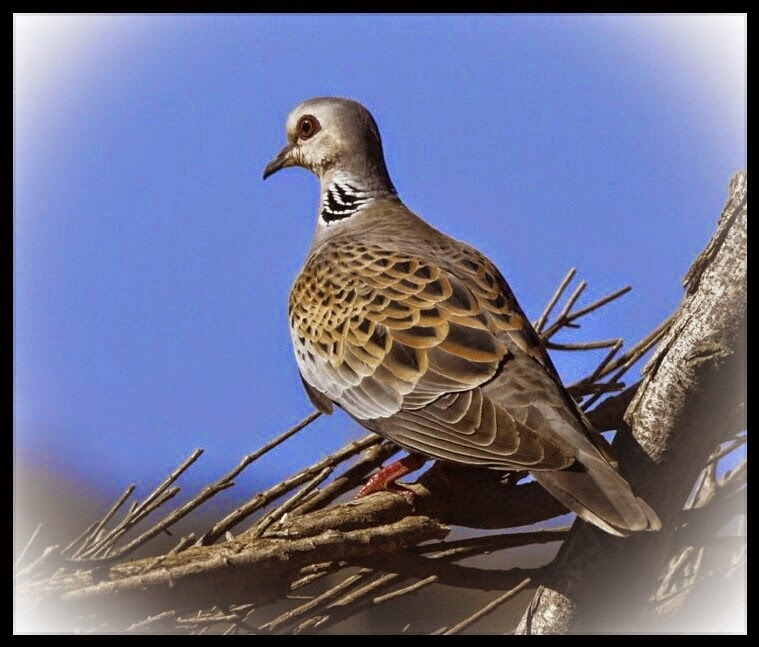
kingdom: Animalia
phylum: Chordata
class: Aves
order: Columbiformes
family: Columbidae
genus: Streptopelia
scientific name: Streptopelia turtur
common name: European turtle dove
